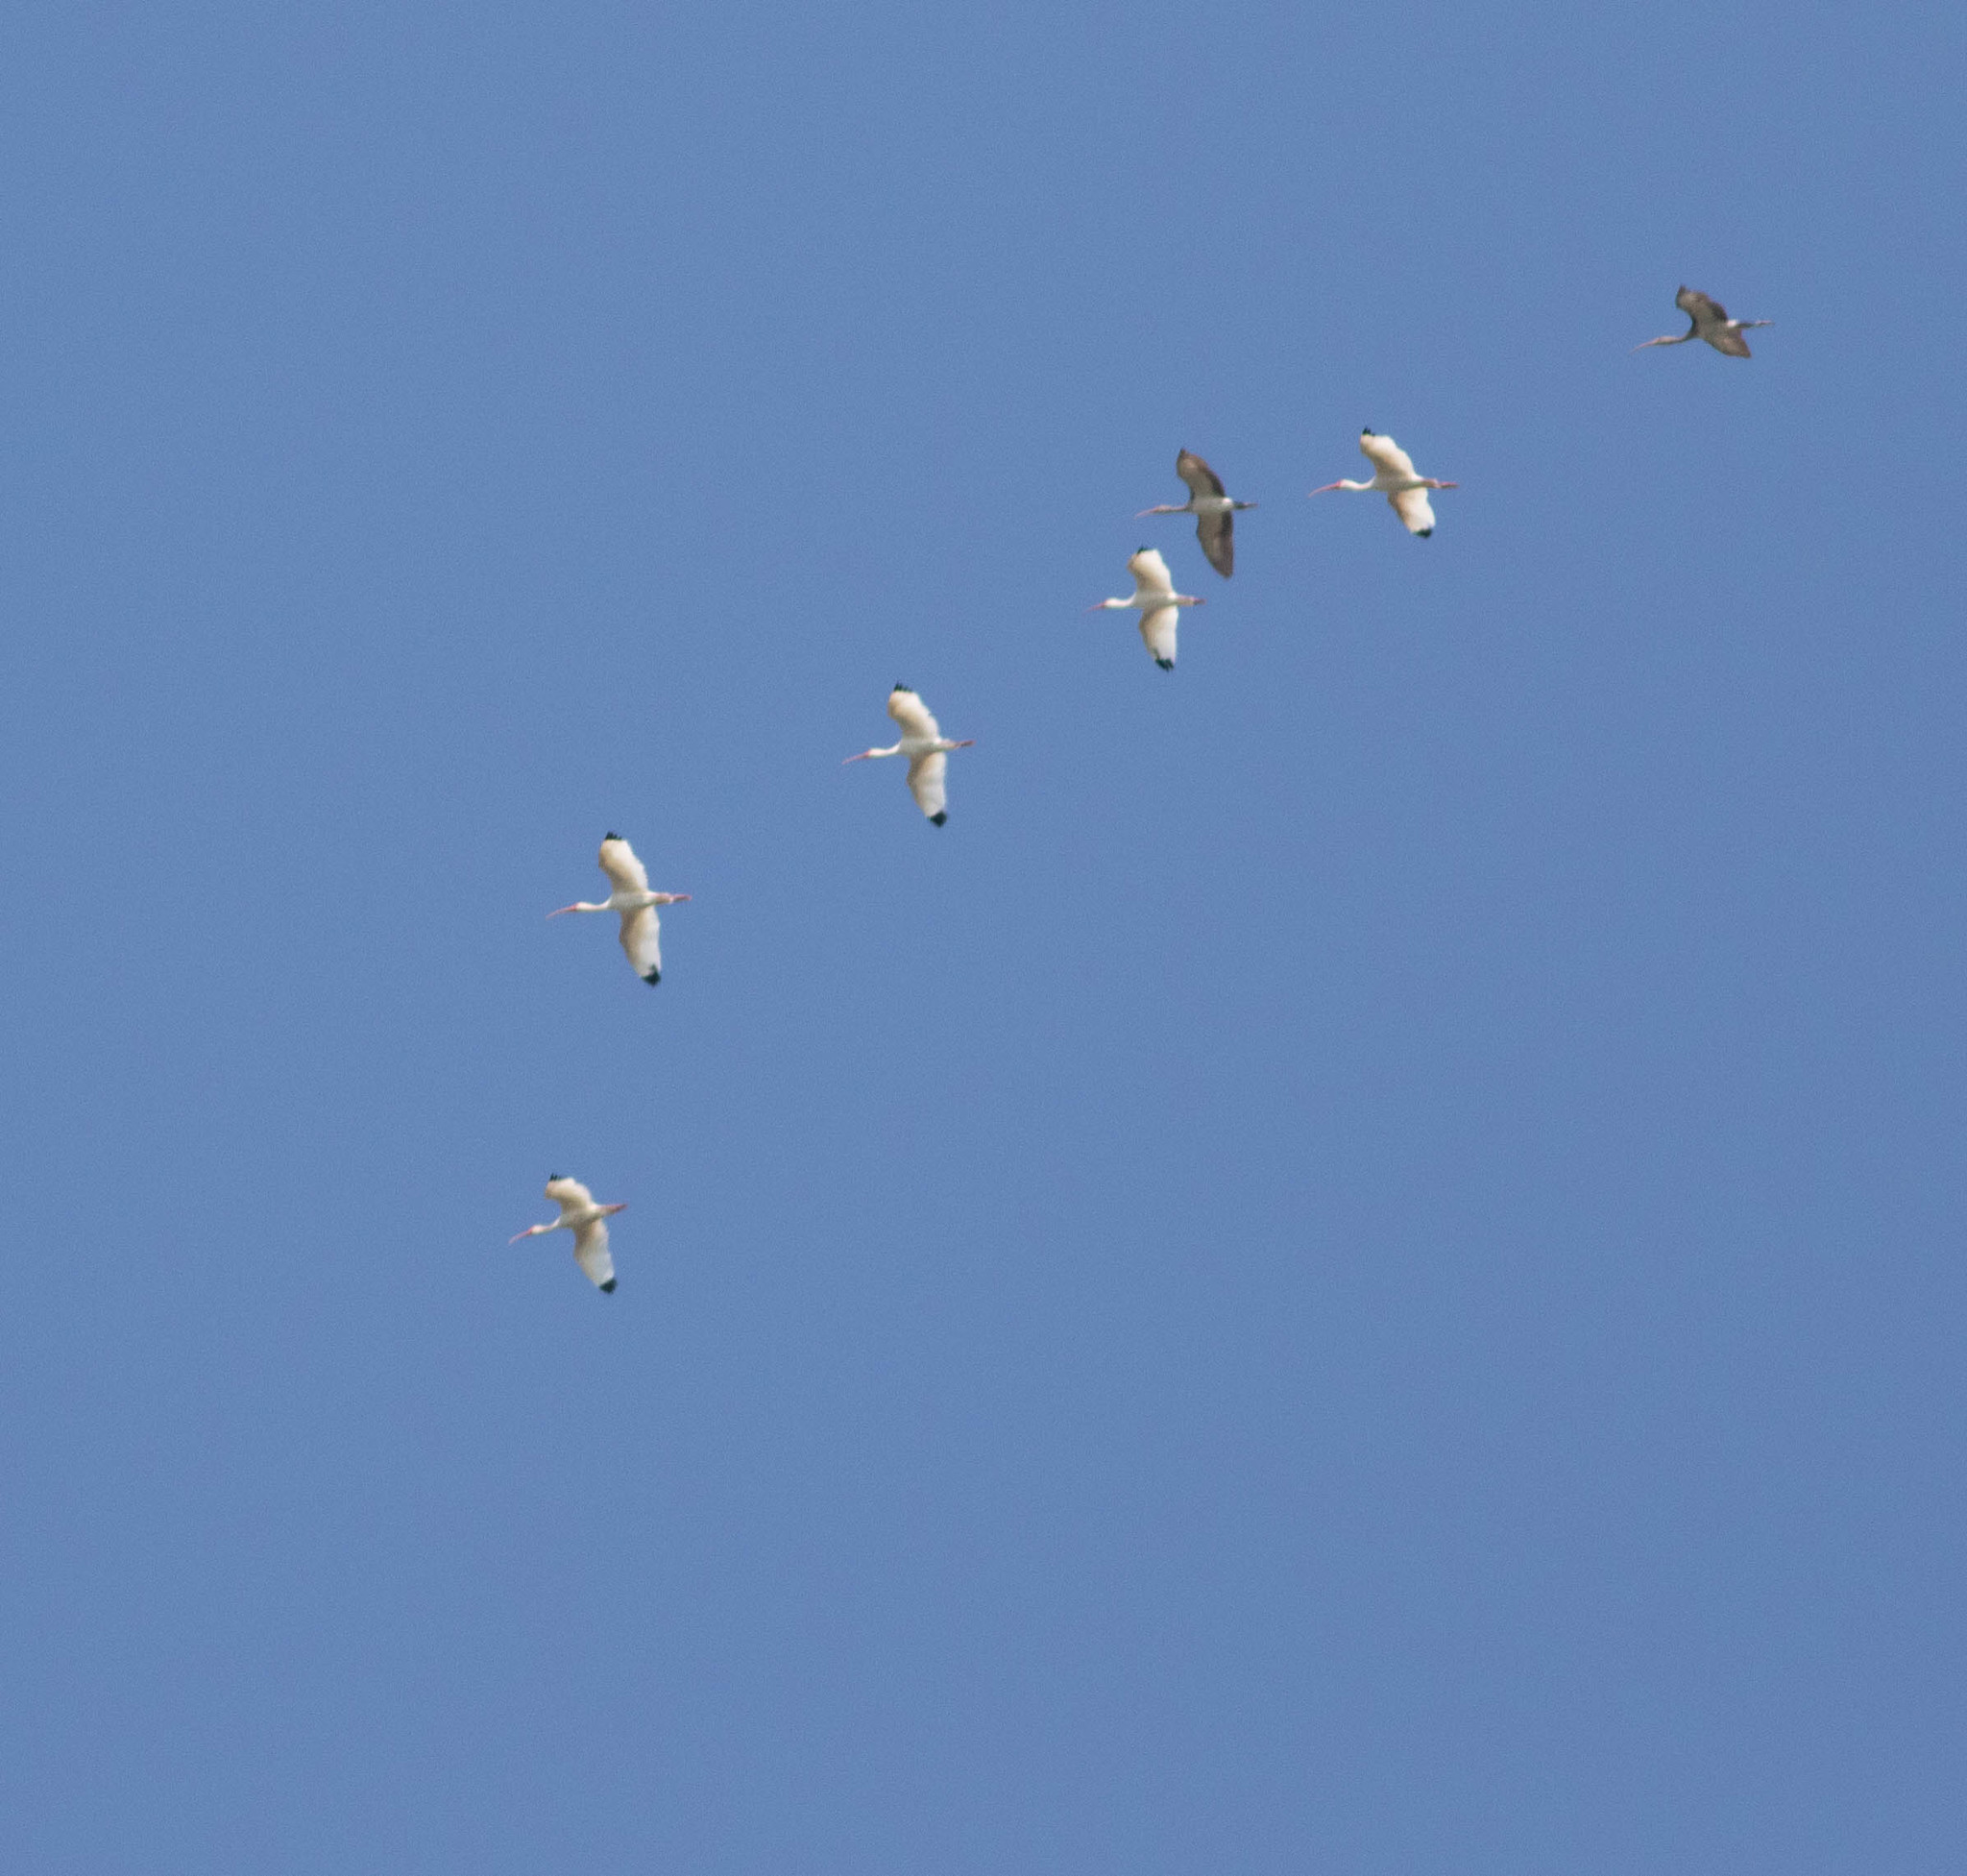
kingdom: Animalia
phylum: Chordata
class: Aves
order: Pelecaniformes
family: Threskiornithidae
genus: Eudocimus
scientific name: Eudocimus albus
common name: White ibis
